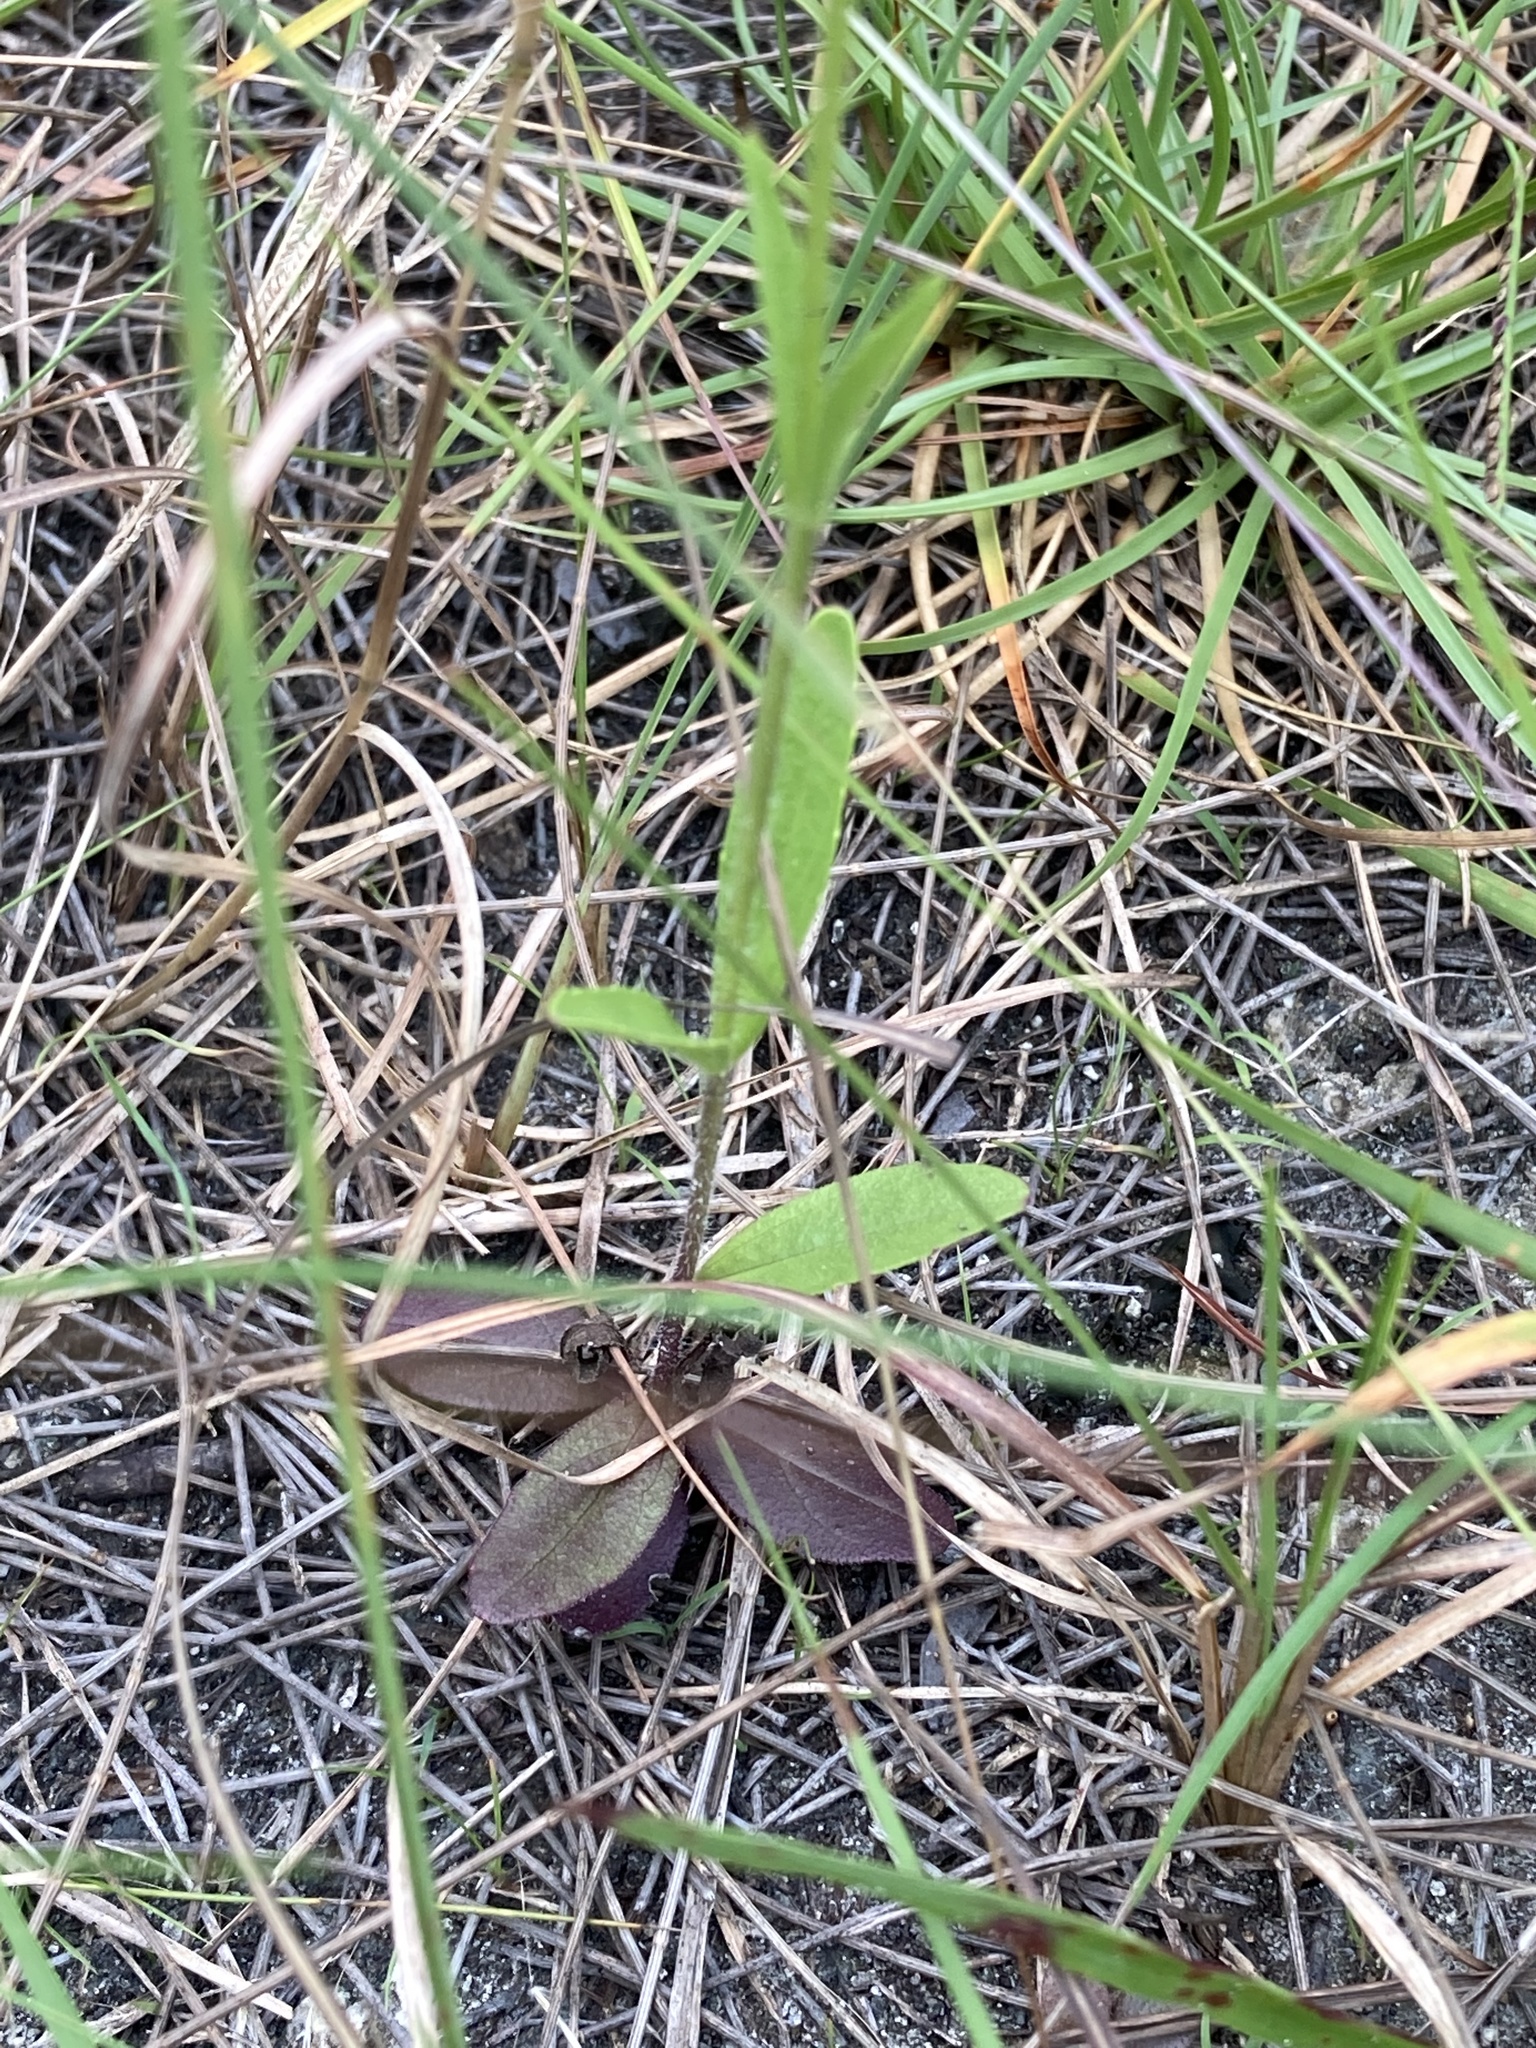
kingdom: Plantae
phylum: Tracheophyta
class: Magnoliopsida
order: Lamiales
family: Orobanchaceae
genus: Buchnera
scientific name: Buchnera floridana
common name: Florida bluehearts
